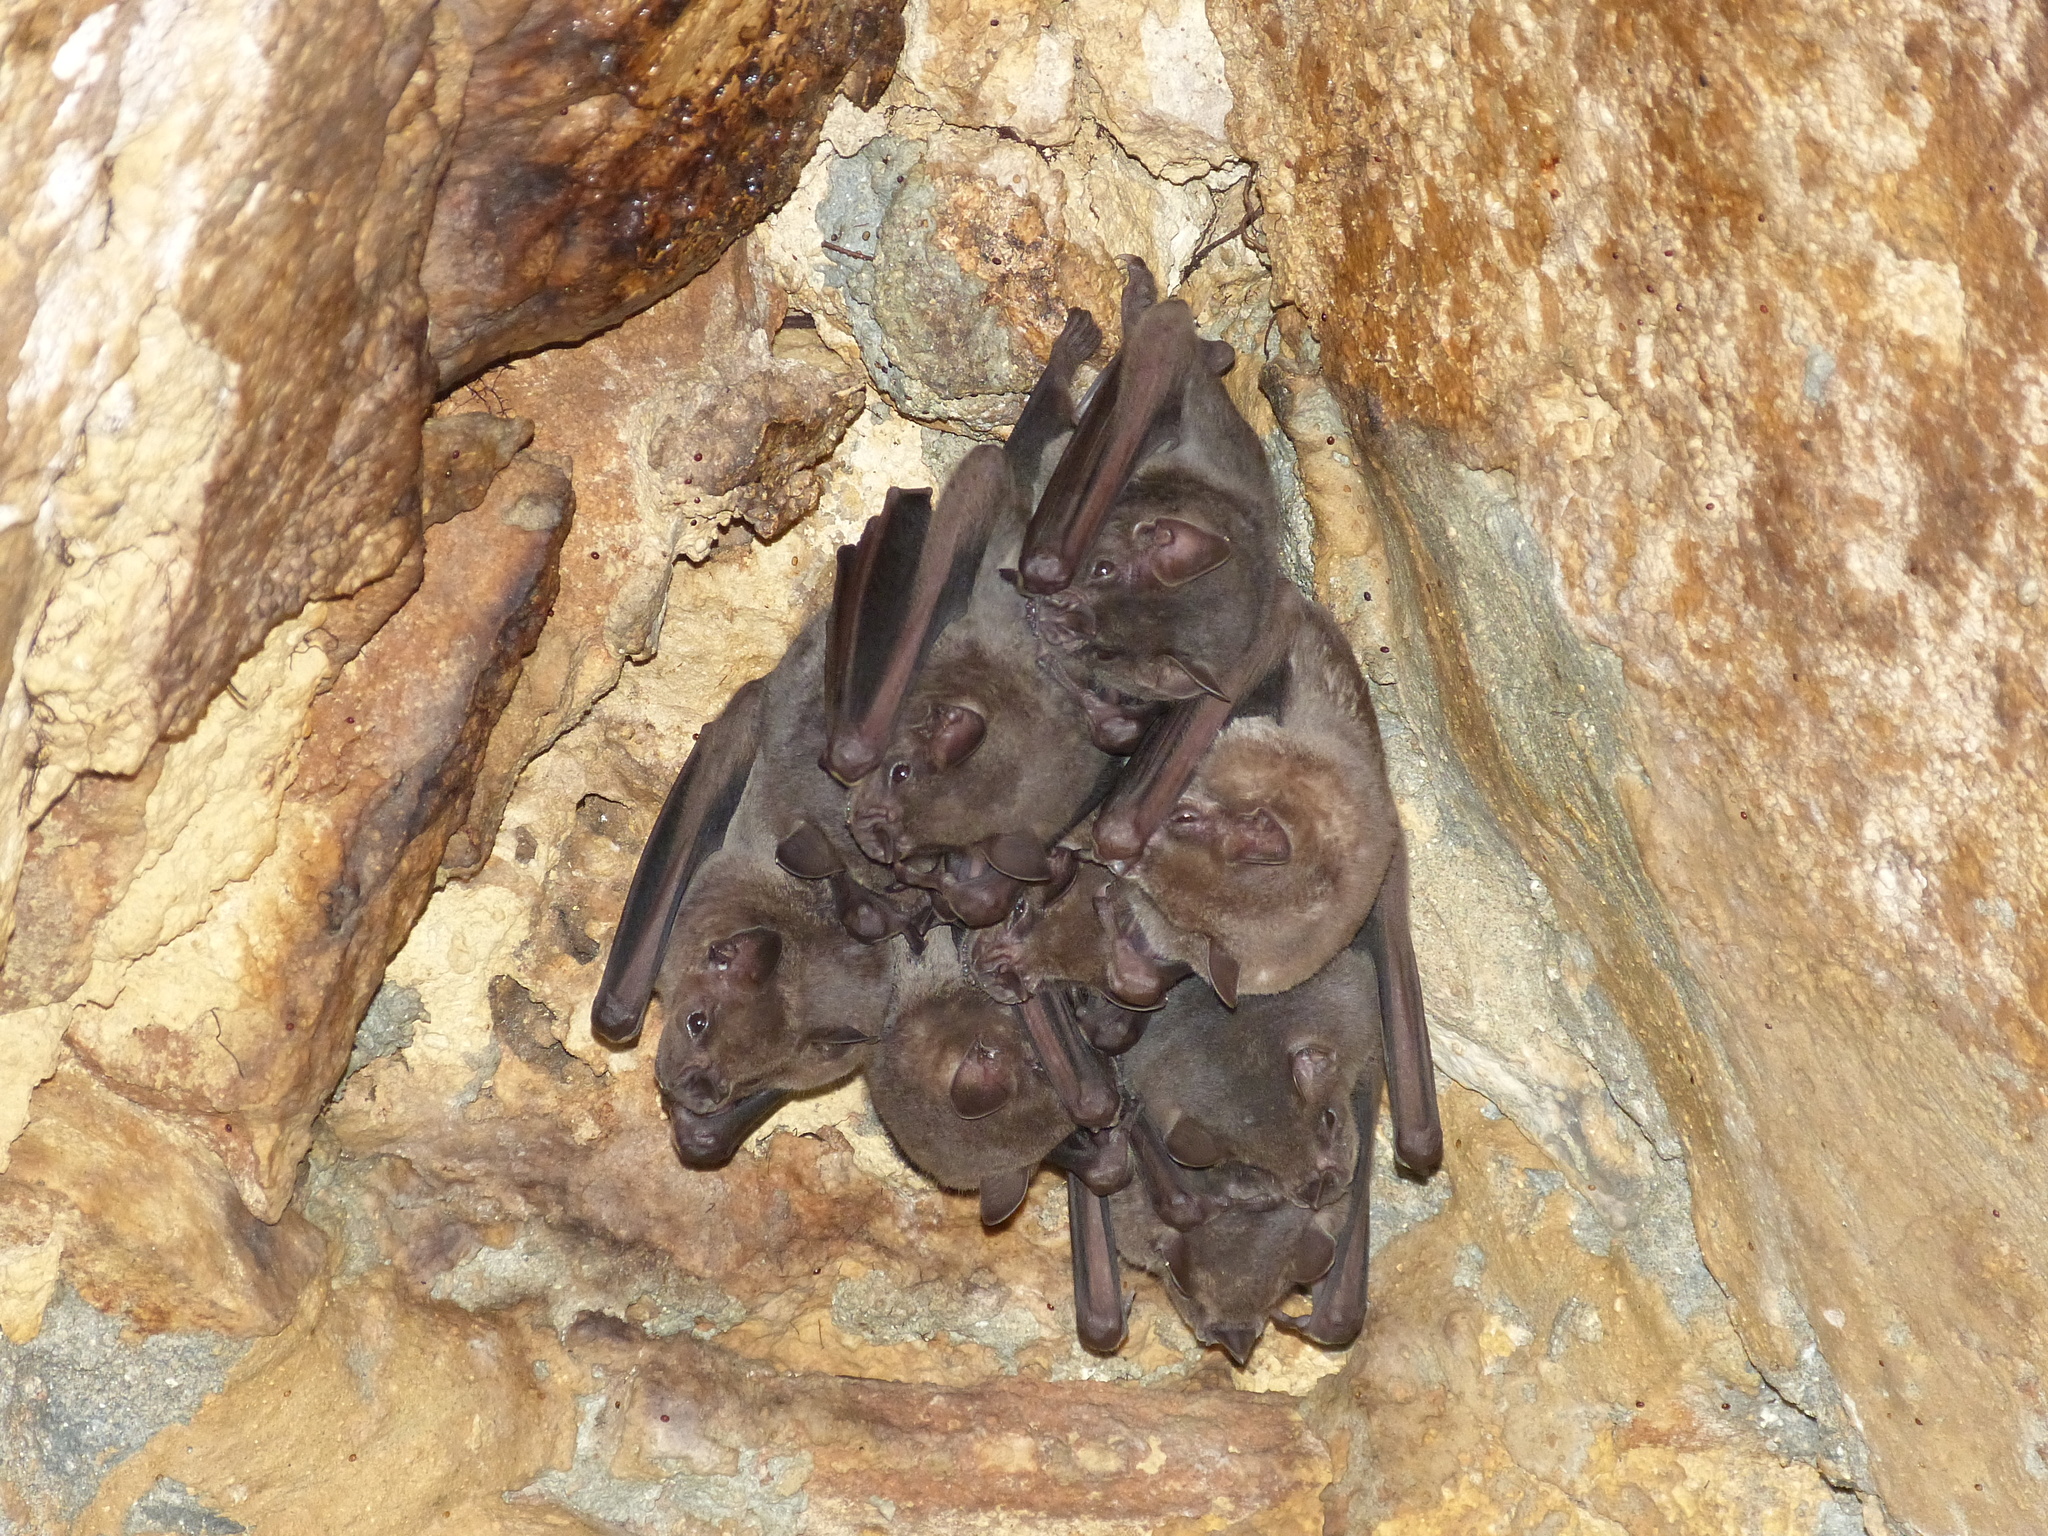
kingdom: Animalia
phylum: Chordata
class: Mammalia
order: Chiroptera
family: Phyllostomidae
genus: Artibeus
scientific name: Artibeus jamaicensis
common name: Jamaican fruit-eating bat
